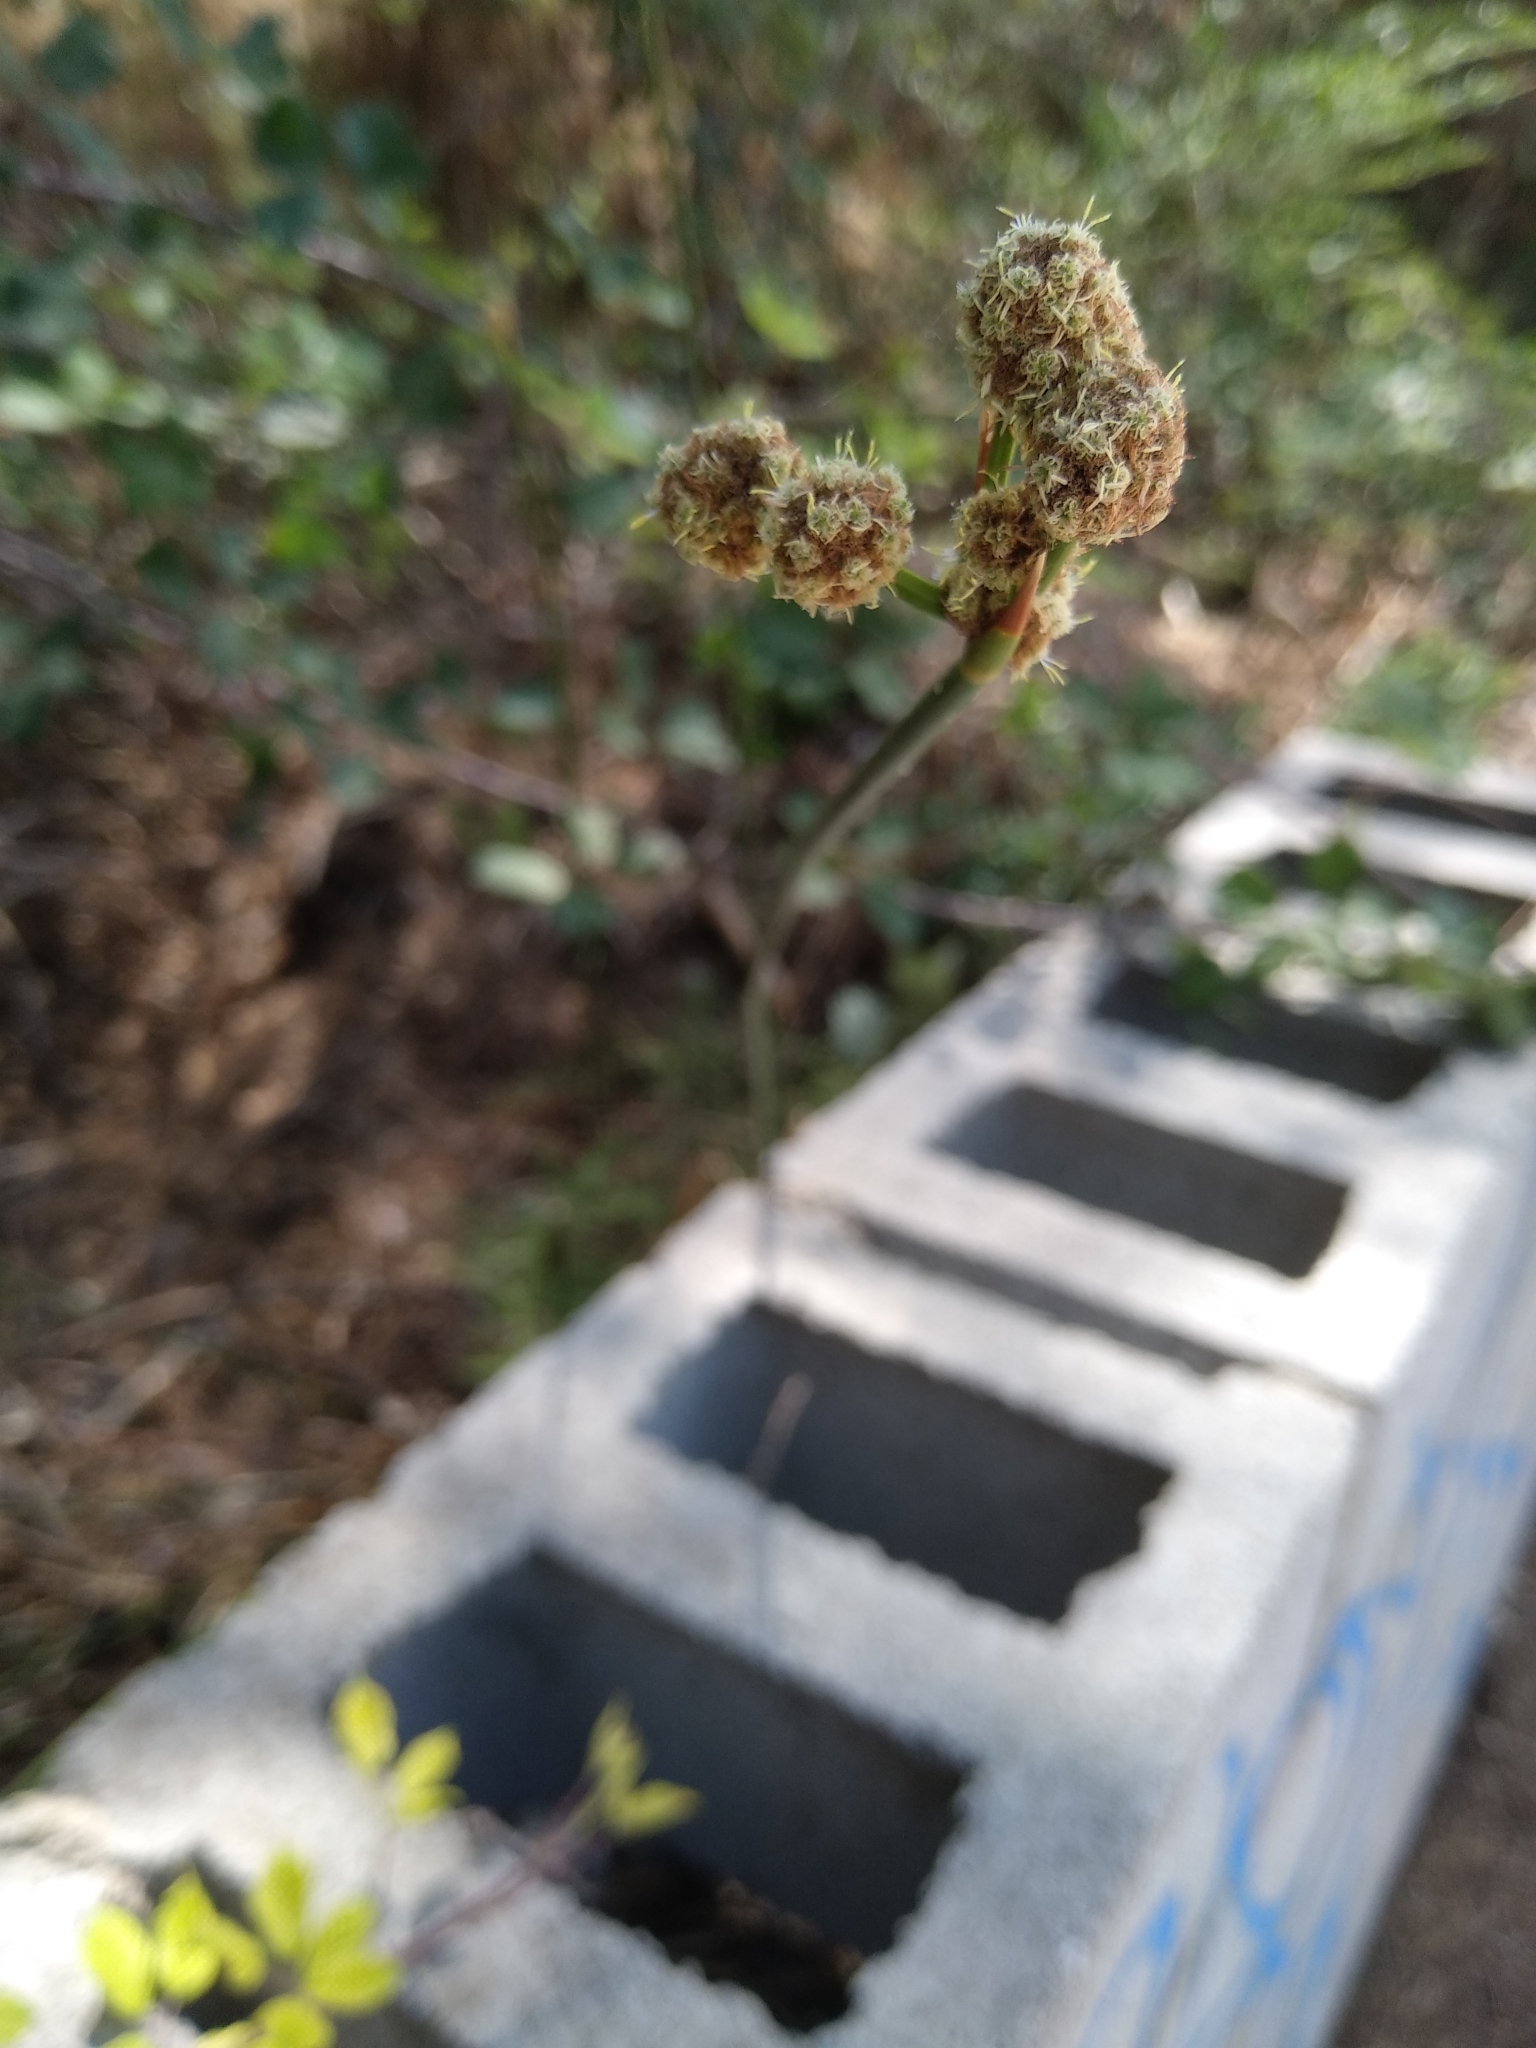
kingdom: Plantae
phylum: Tracheophyta
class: Liliopsida
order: Poales
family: Cyperaceae
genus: Scirpoides
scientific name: Scirpoides holoschoenus
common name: Round-headed club-rush
